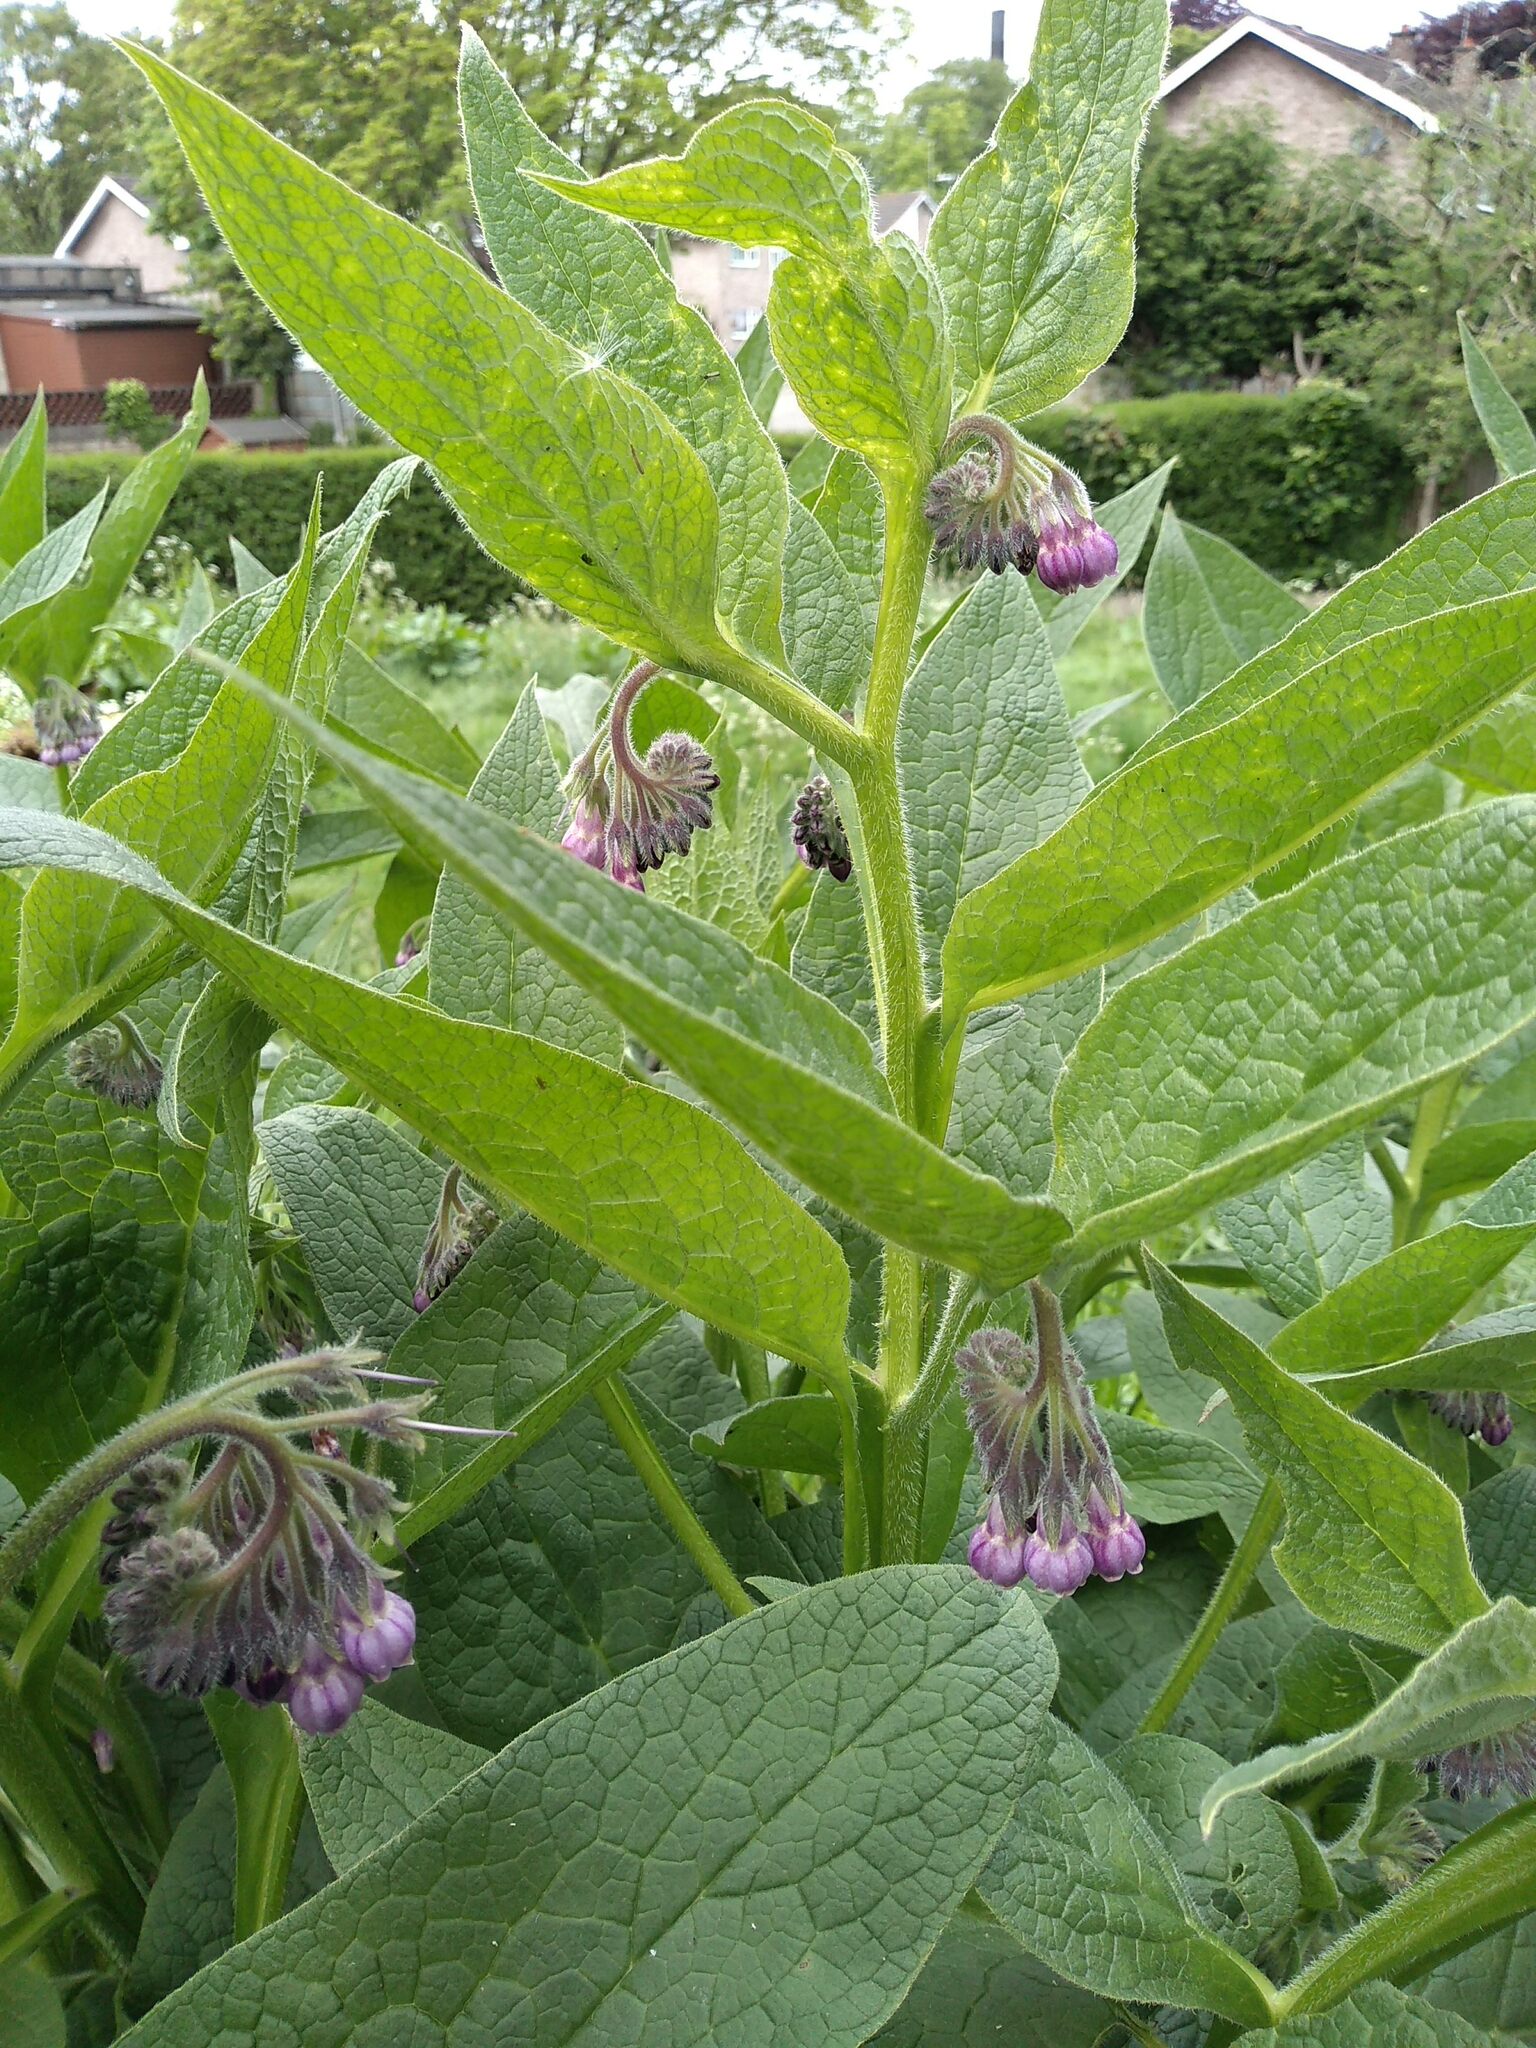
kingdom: Plantae
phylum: Tracheophyta
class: Magnoliopsida
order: Boraginales
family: Boraginaceae
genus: Symphytum
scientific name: Symphytum uplandicum
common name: Russian comfrey
